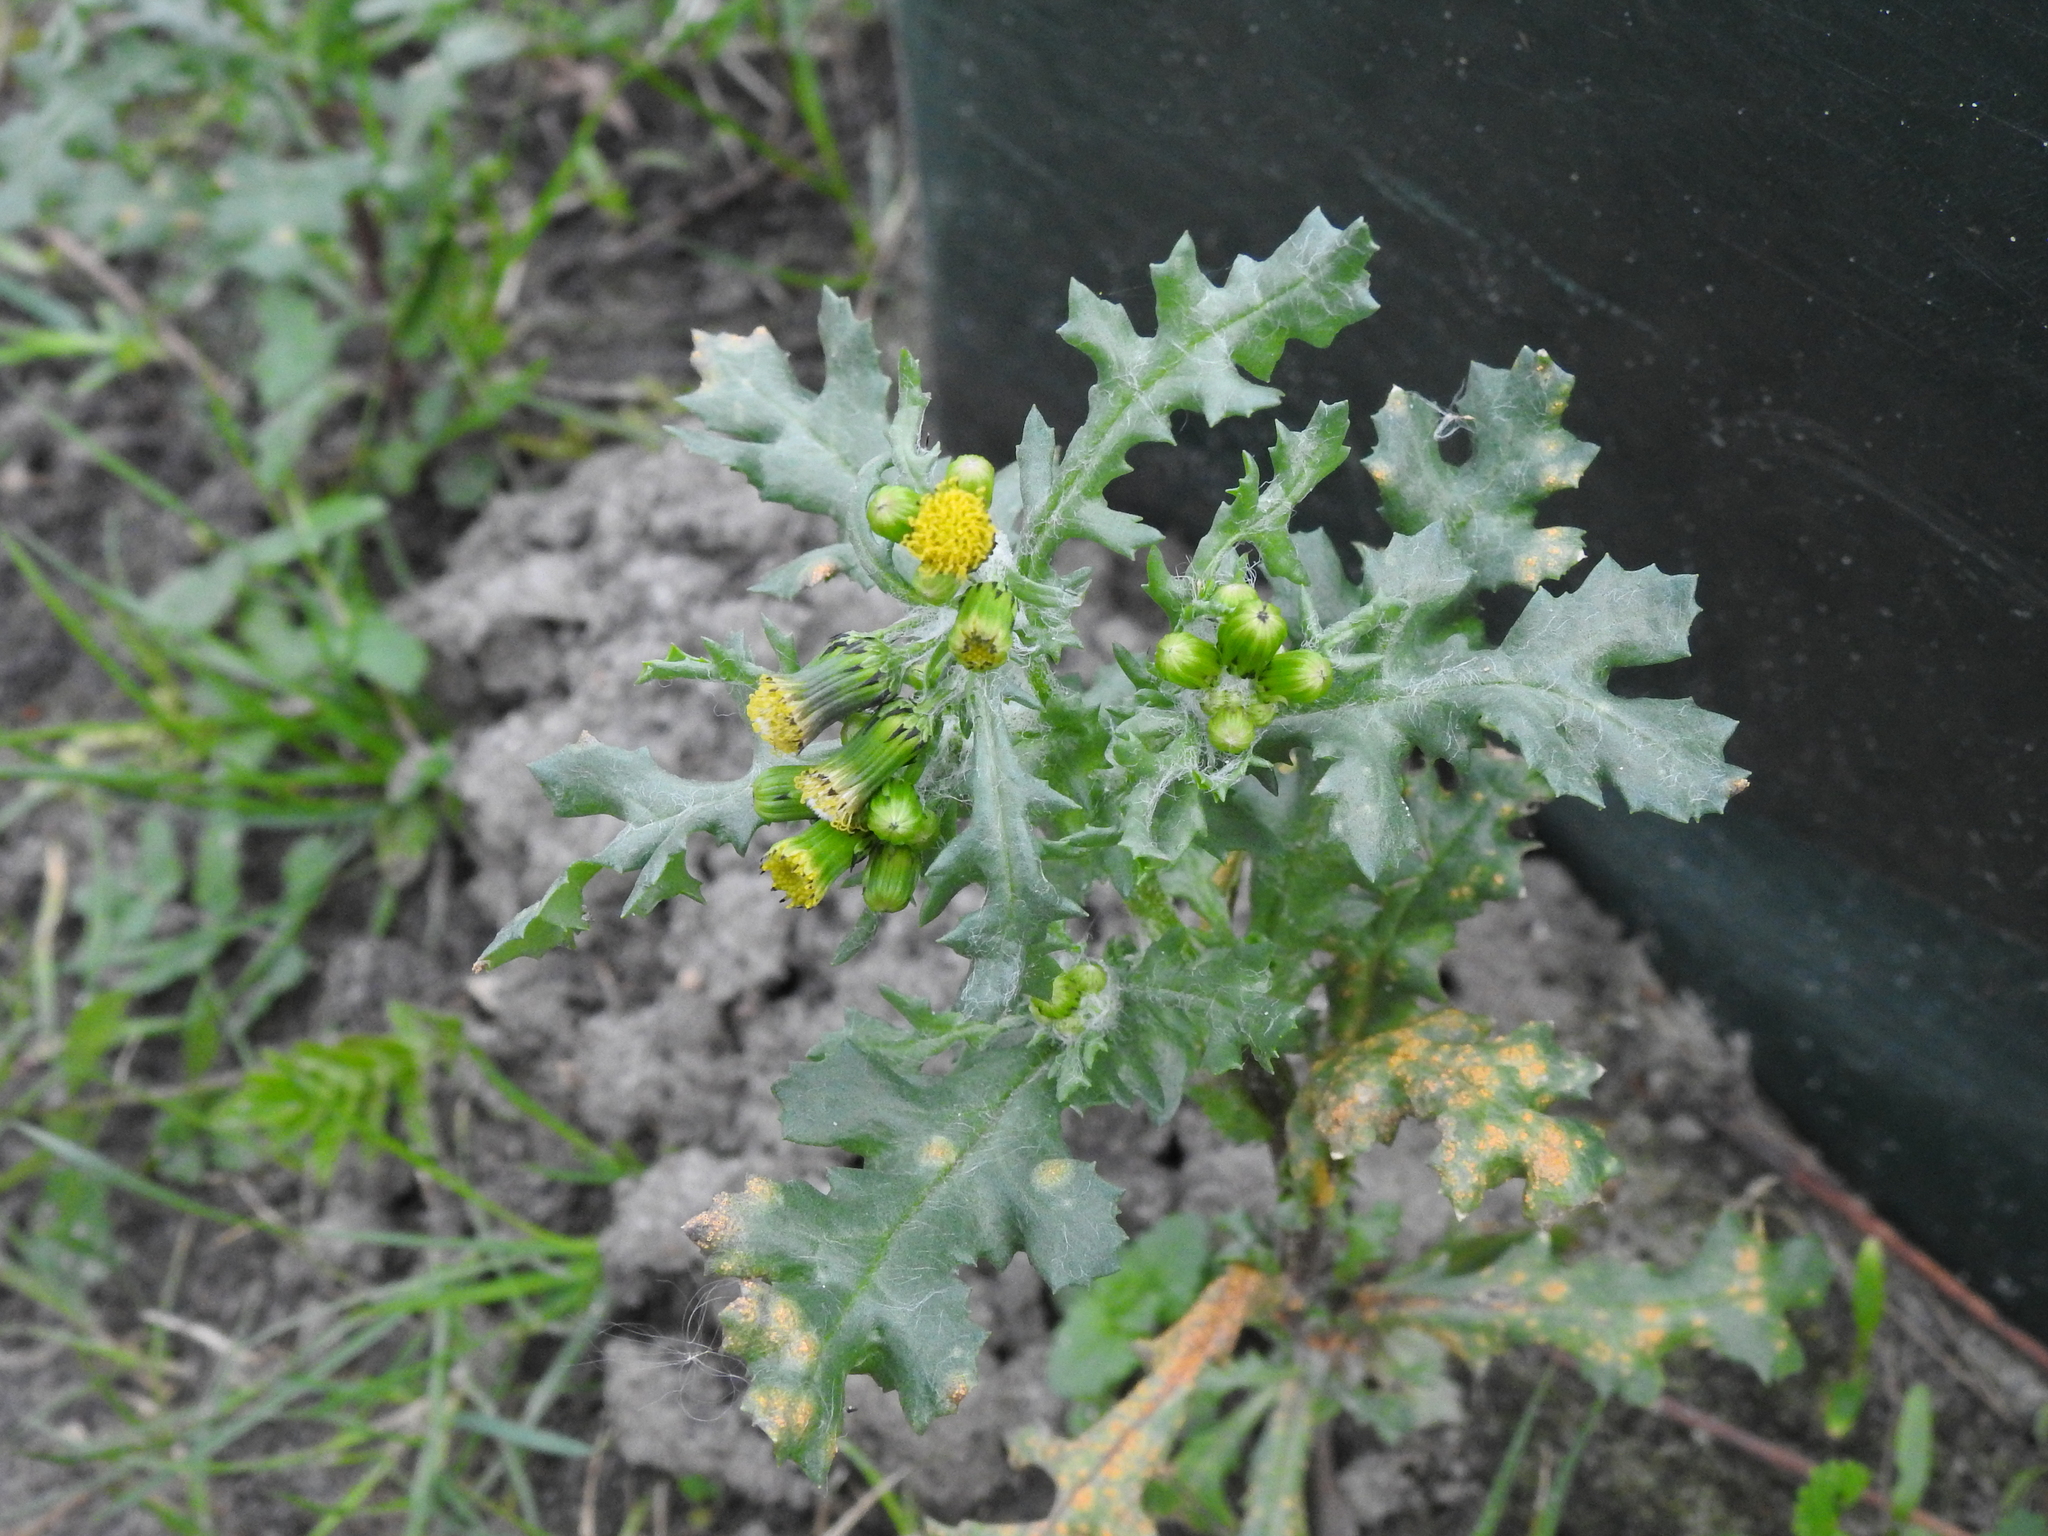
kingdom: Plantae
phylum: Tracheophyta
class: Magnoliopsida
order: Asterales
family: Asteraceae
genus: Senecio
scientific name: Senecio vulgaris
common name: Old-man-in-the-spring
